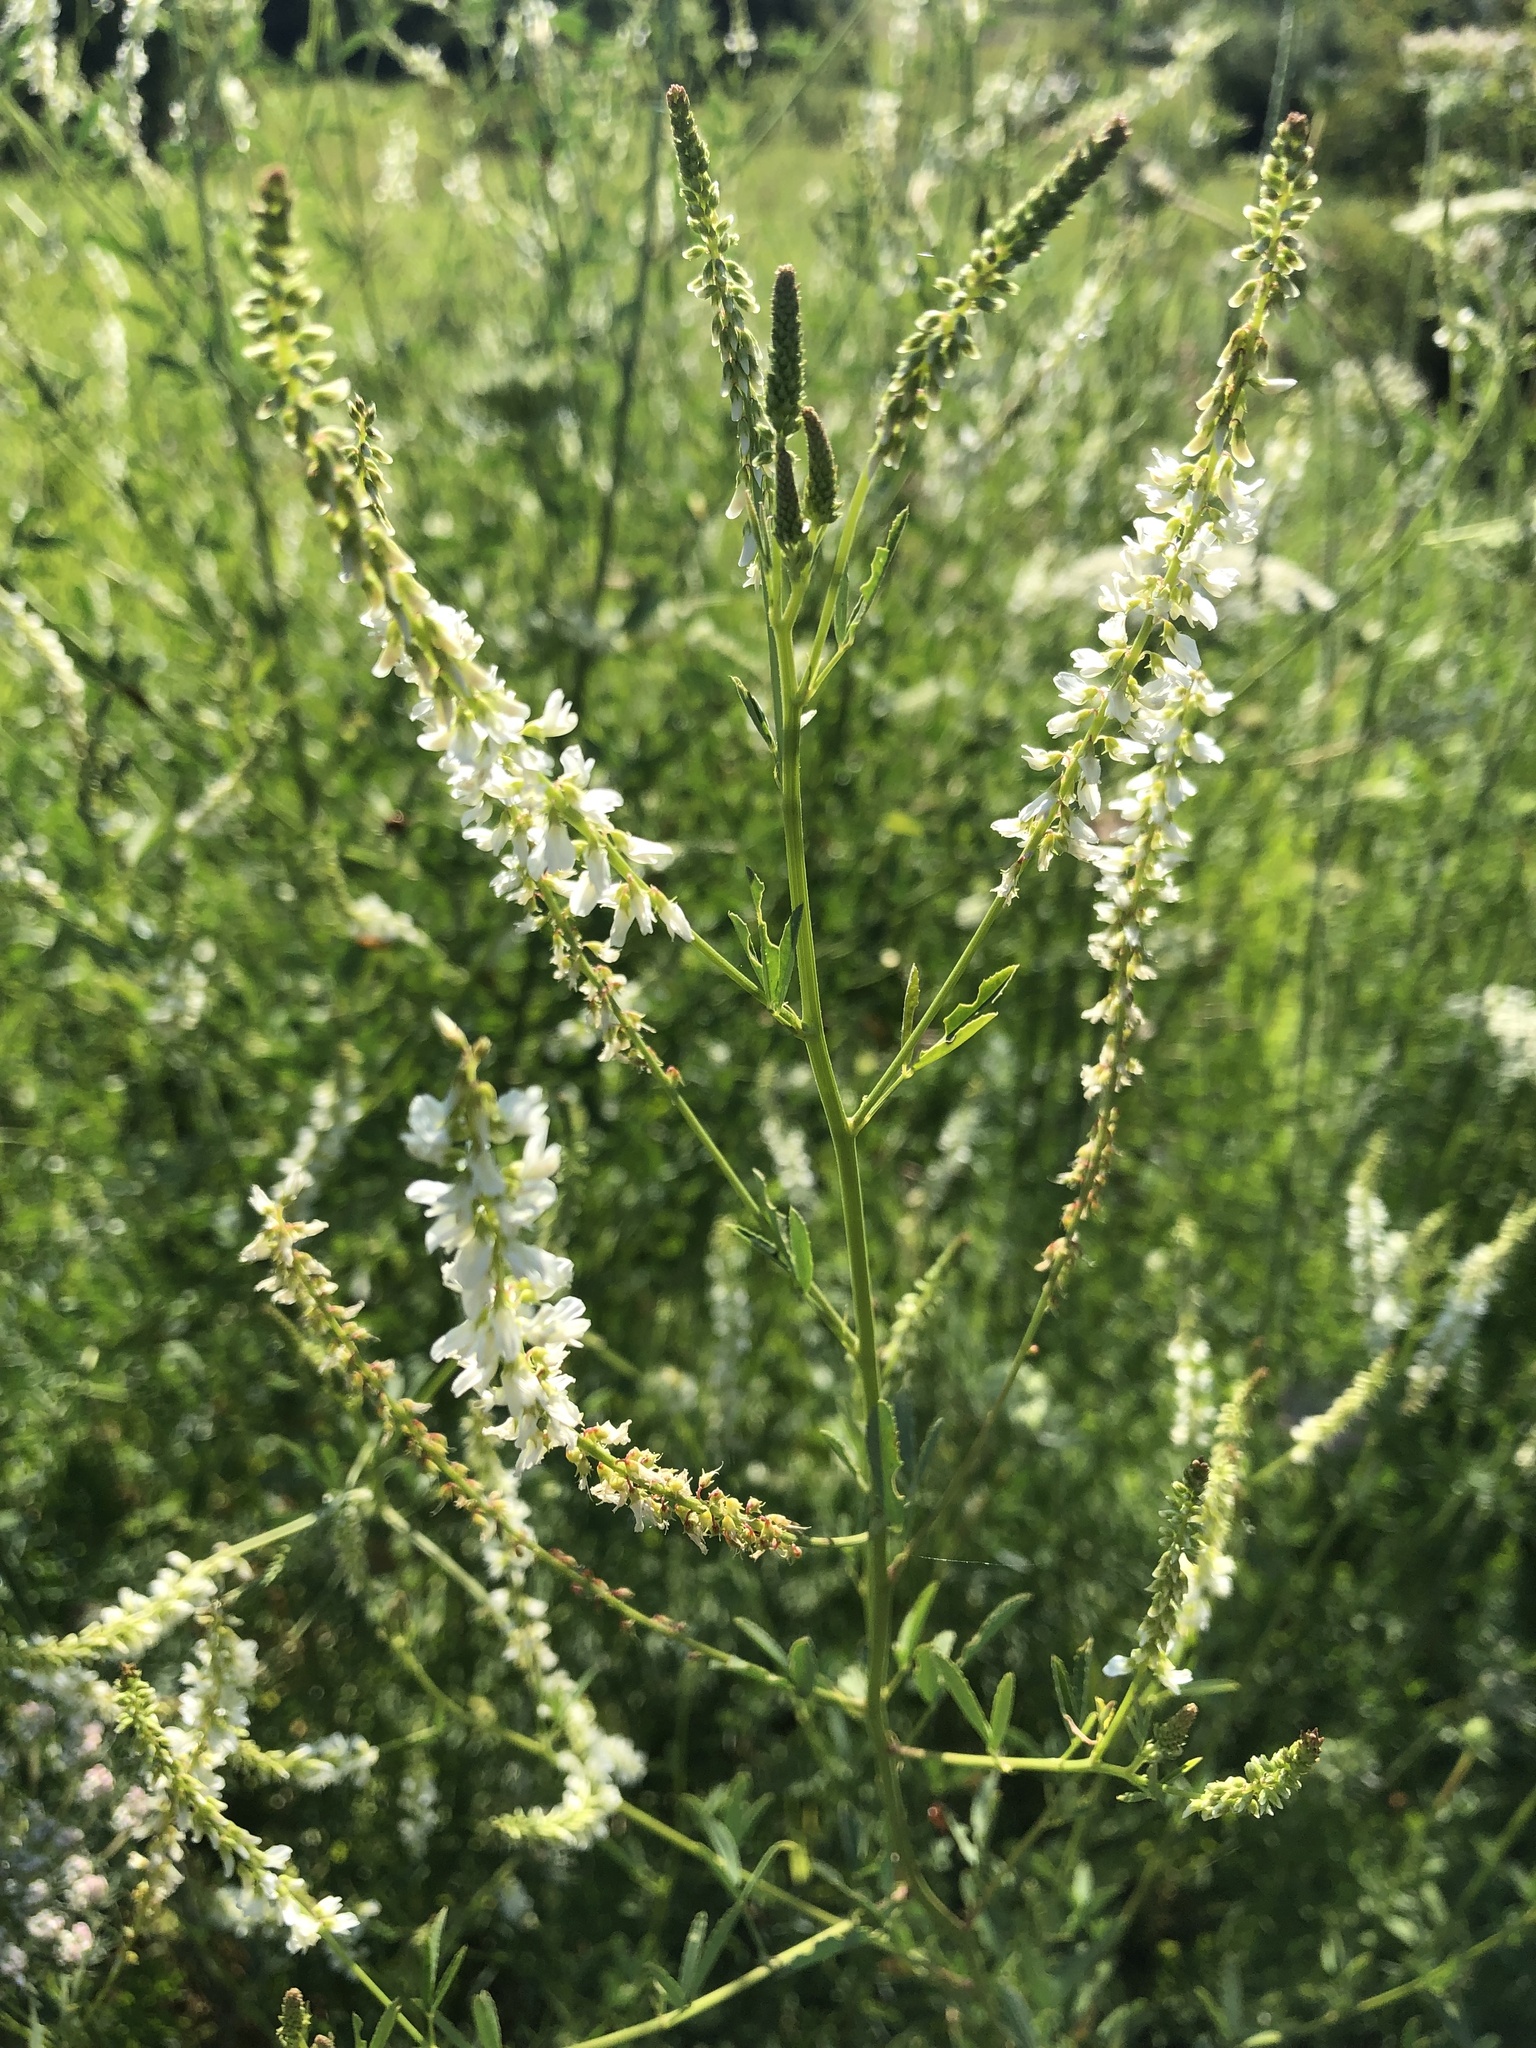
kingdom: Plantae
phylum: Tracheophyta
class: Magnoliopsida
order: Fabales
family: Fabaceae
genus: Melilotus
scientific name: Melilotus albus
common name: White melilot
